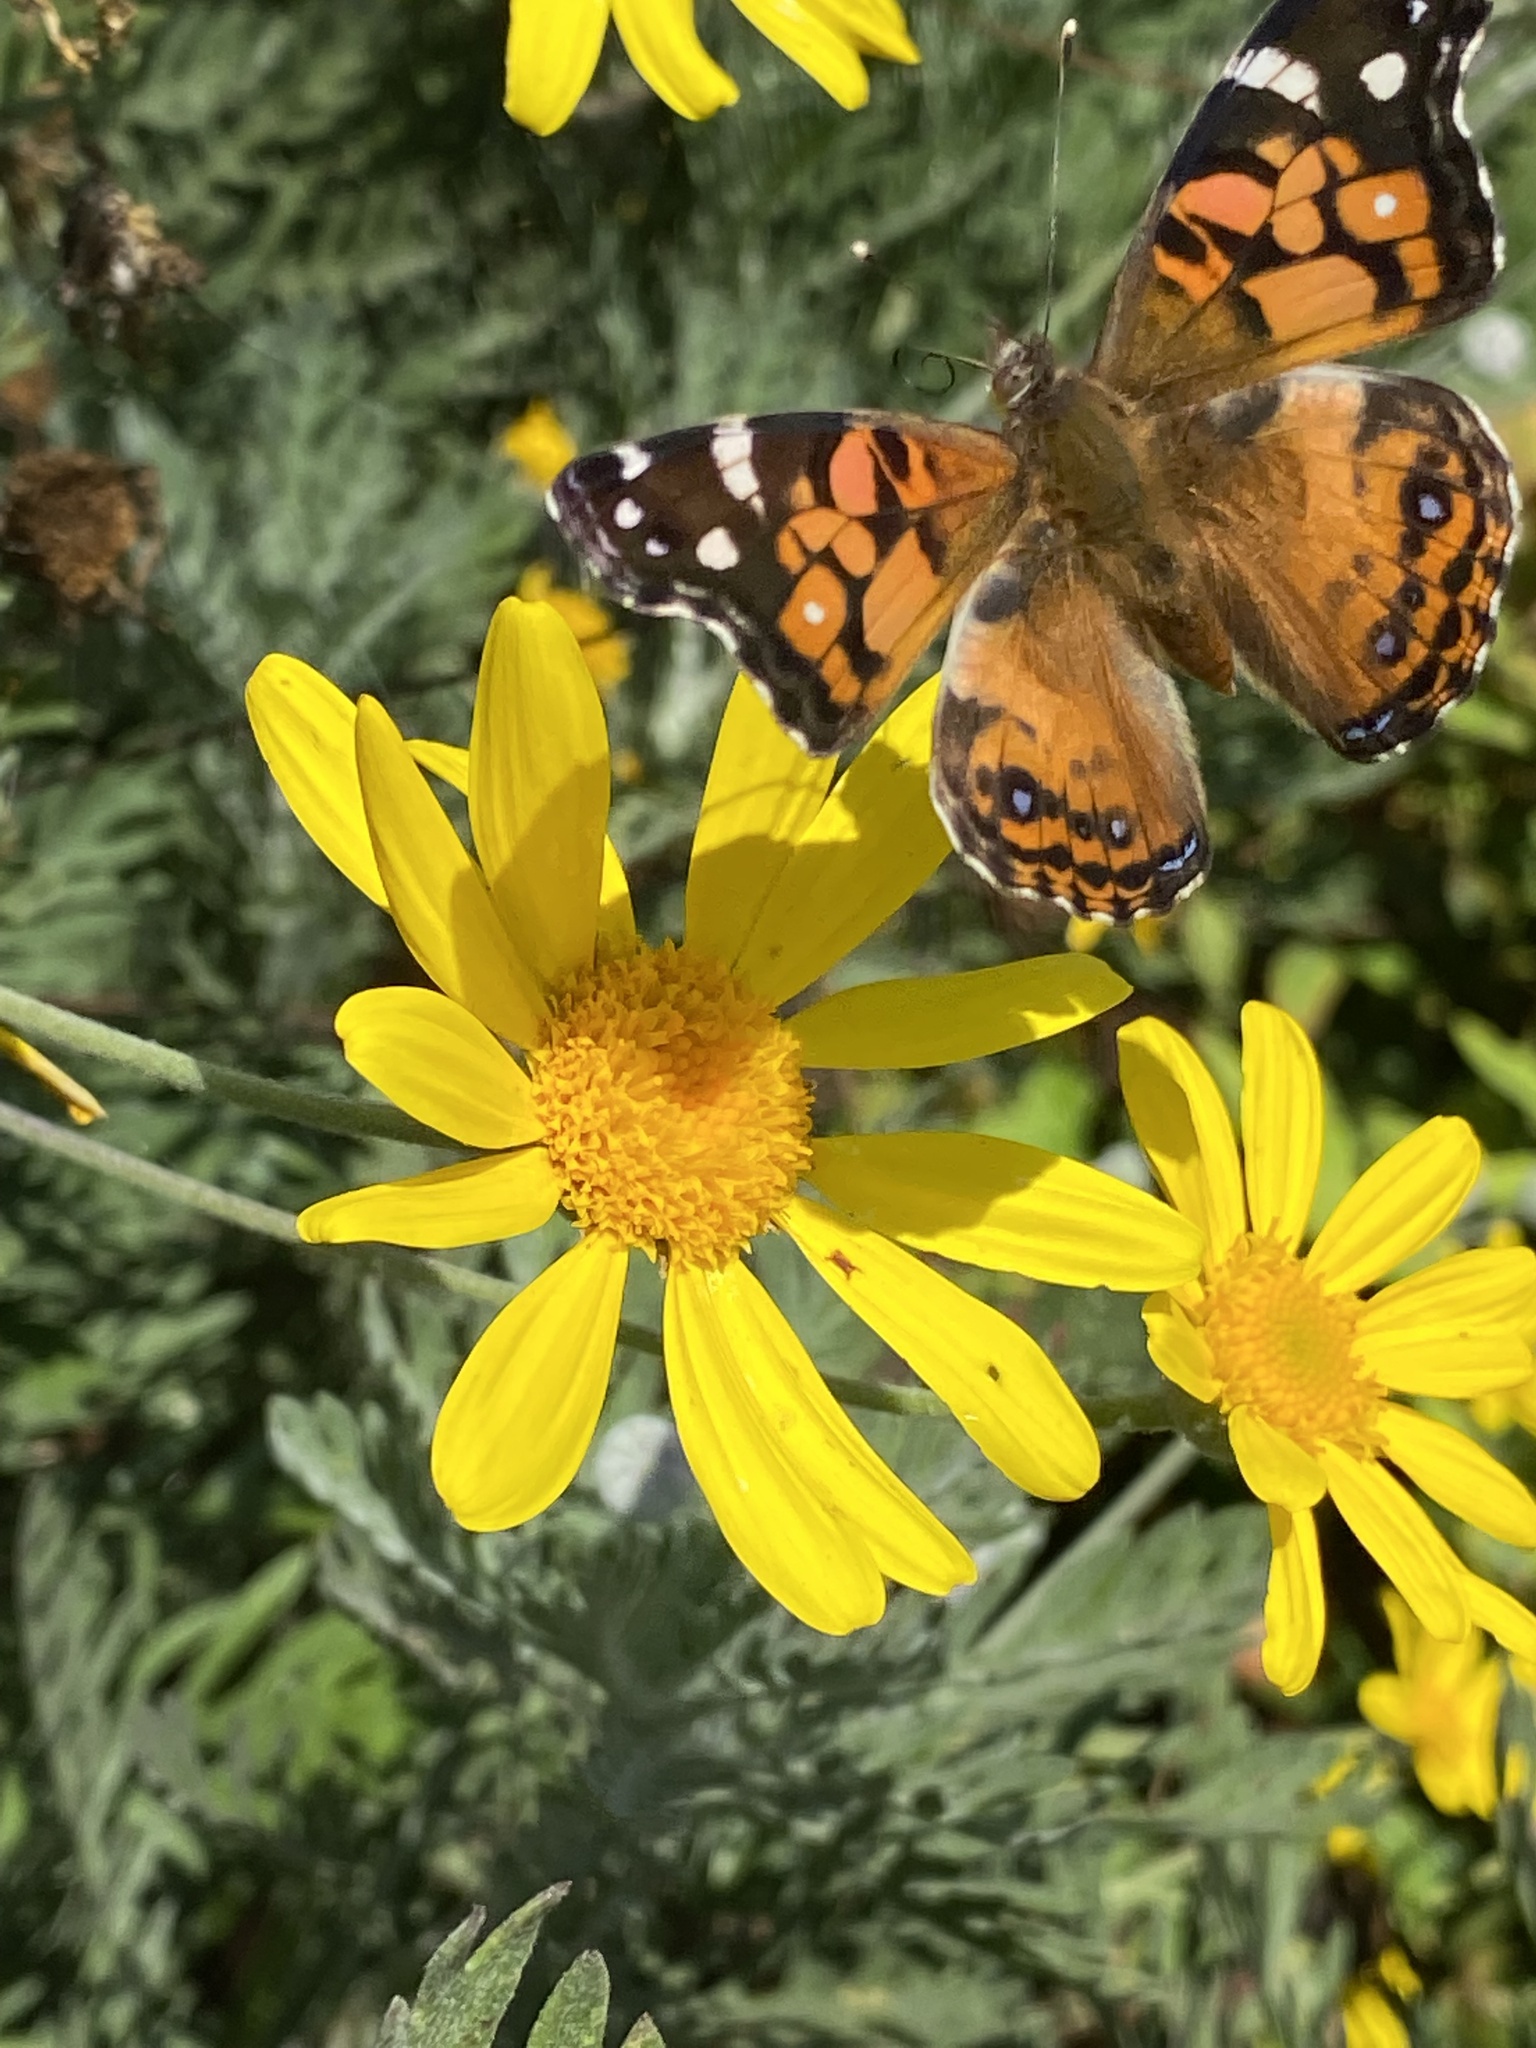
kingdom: Animalia
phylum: Arthropoda
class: Insecta
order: Lepidoptera
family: Nymphalidae
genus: Vanessa
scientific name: Vanessa virginiensis
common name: American lady
